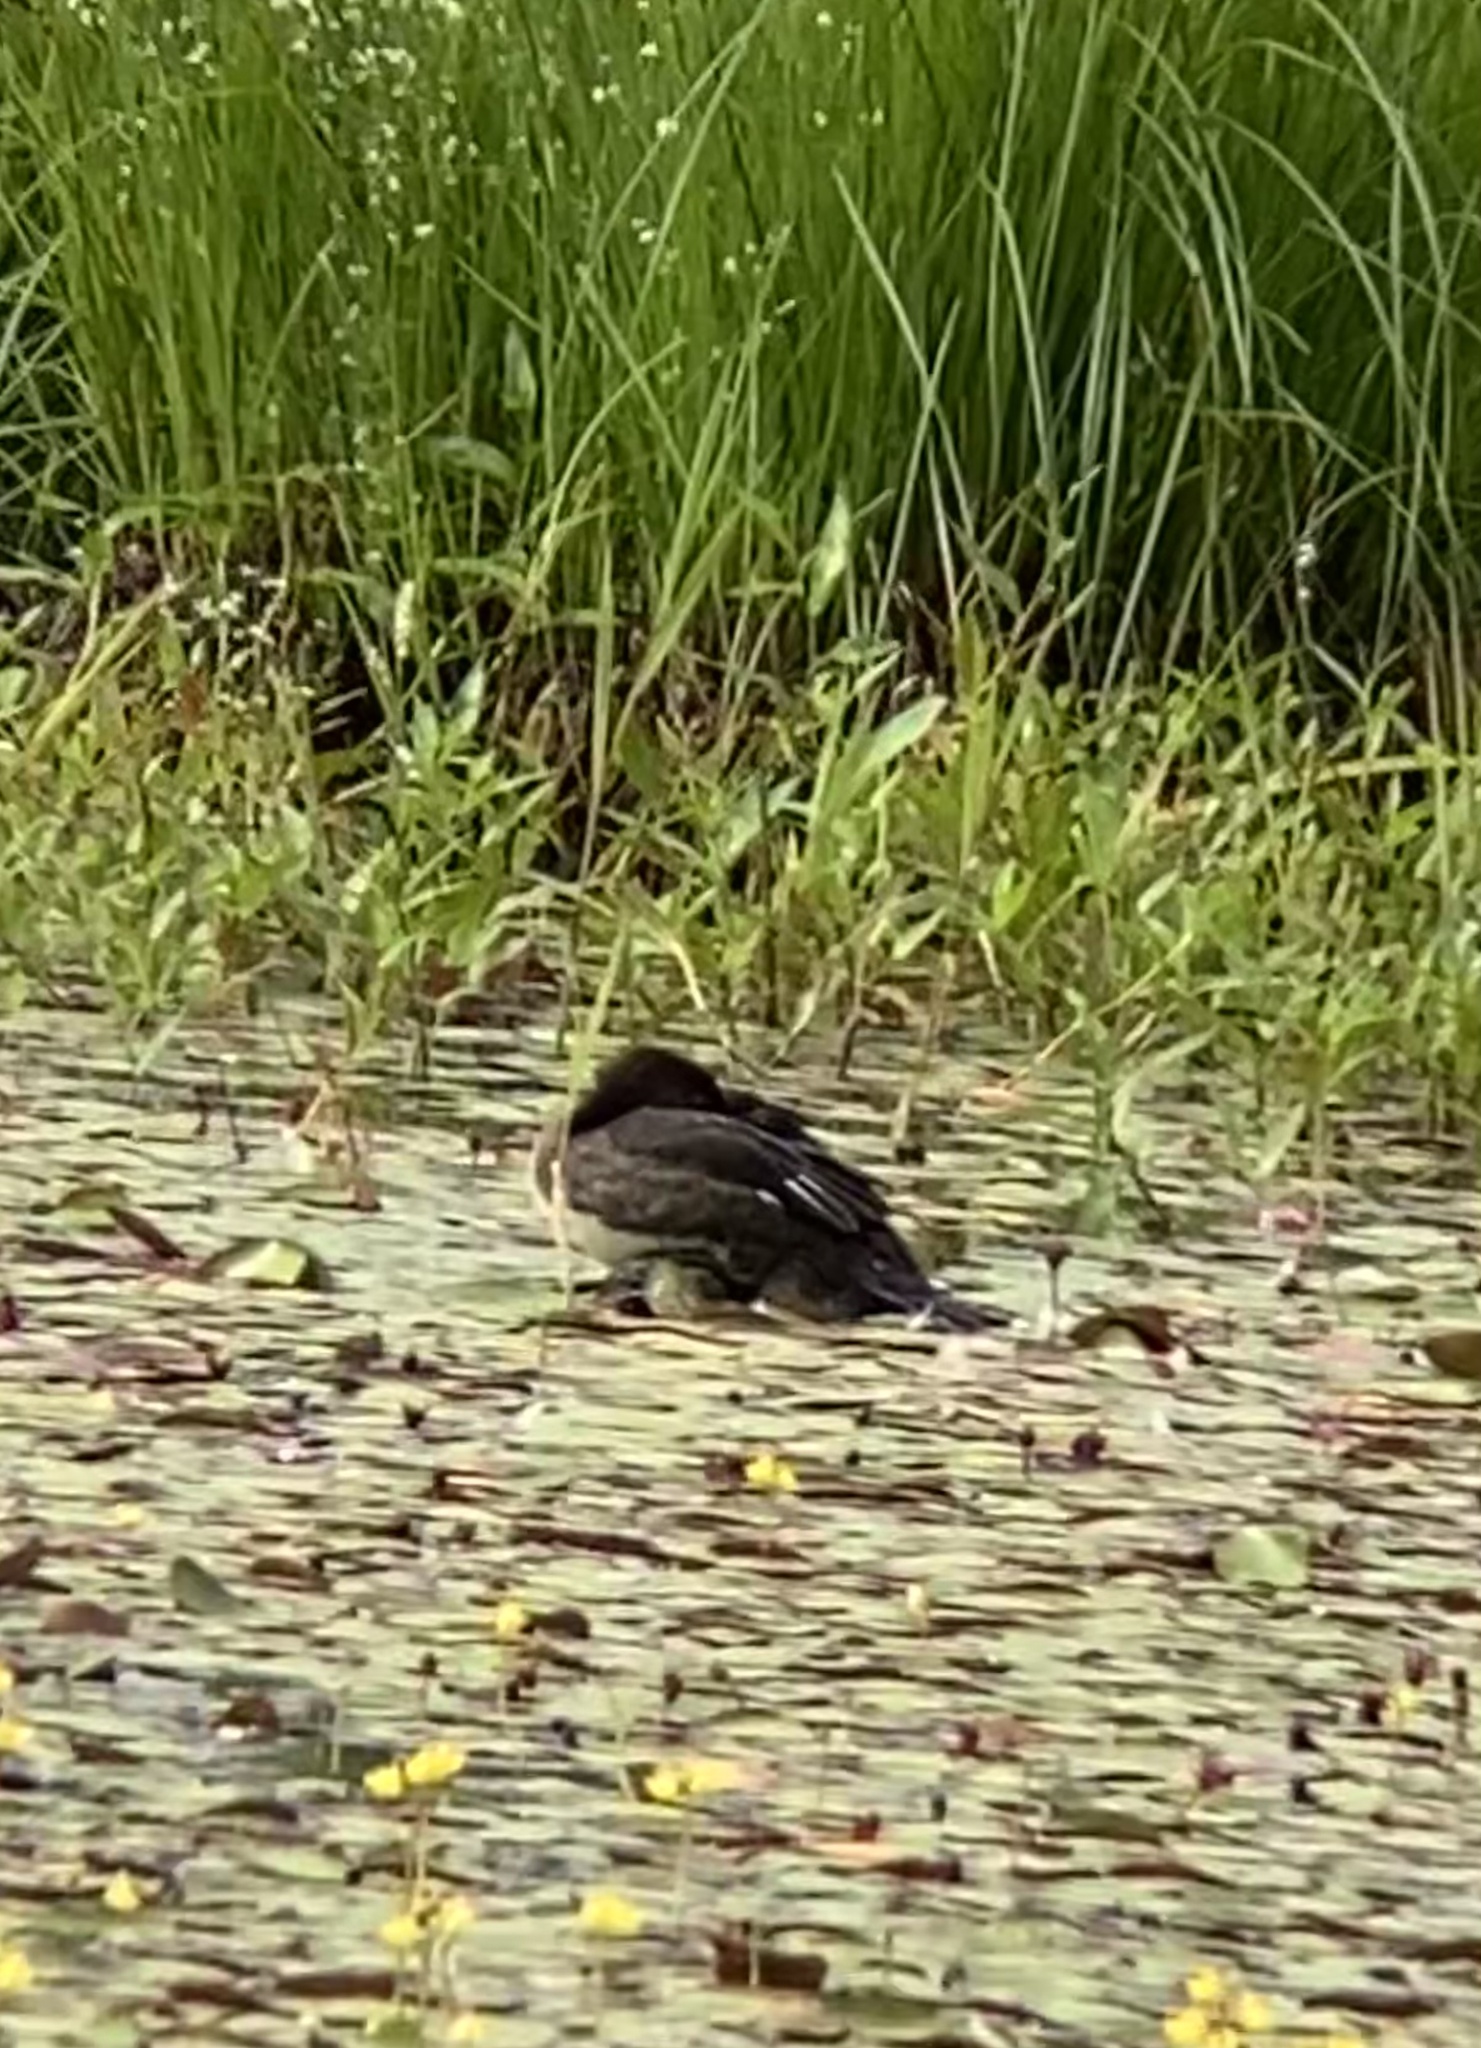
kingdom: Animalia
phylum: Chordata
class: Aves
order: Anseriformes
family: Anatidae
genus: Lophodytes
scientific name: Lophodytes cucullatus
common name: Hooded merganser
